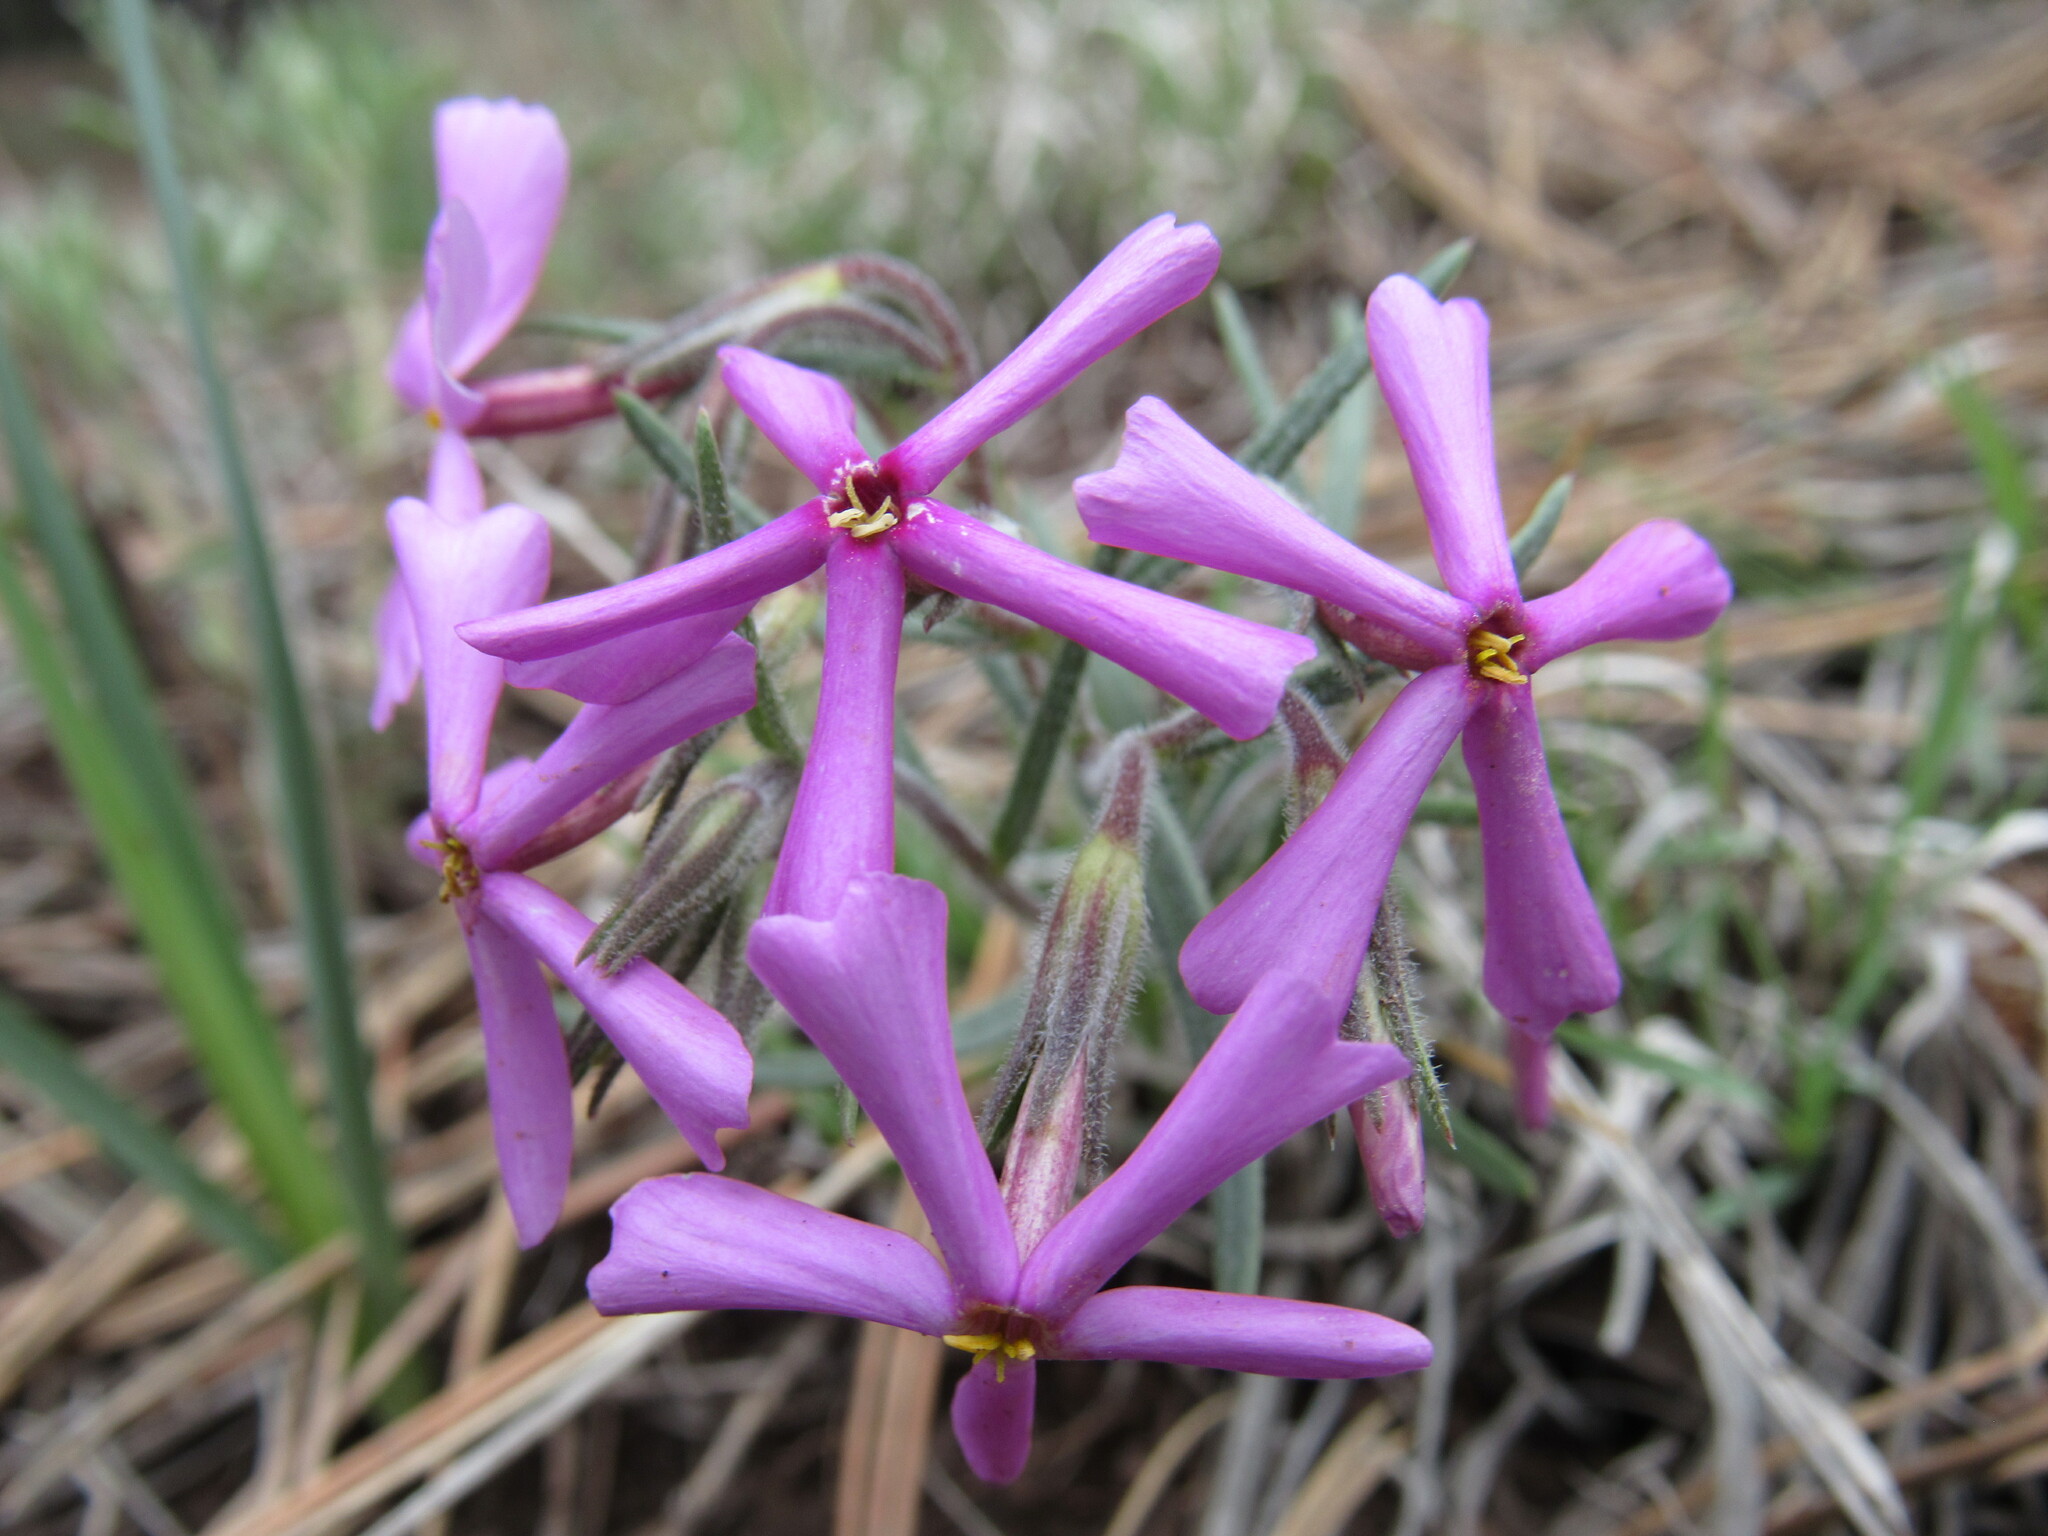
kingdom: Plantae
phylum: Tracheophyta
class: Magnoliopsida
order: Ericales
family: Polemoniaceae
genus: Phlox
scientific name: Phlox longifolia
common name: Longleaf phlox
